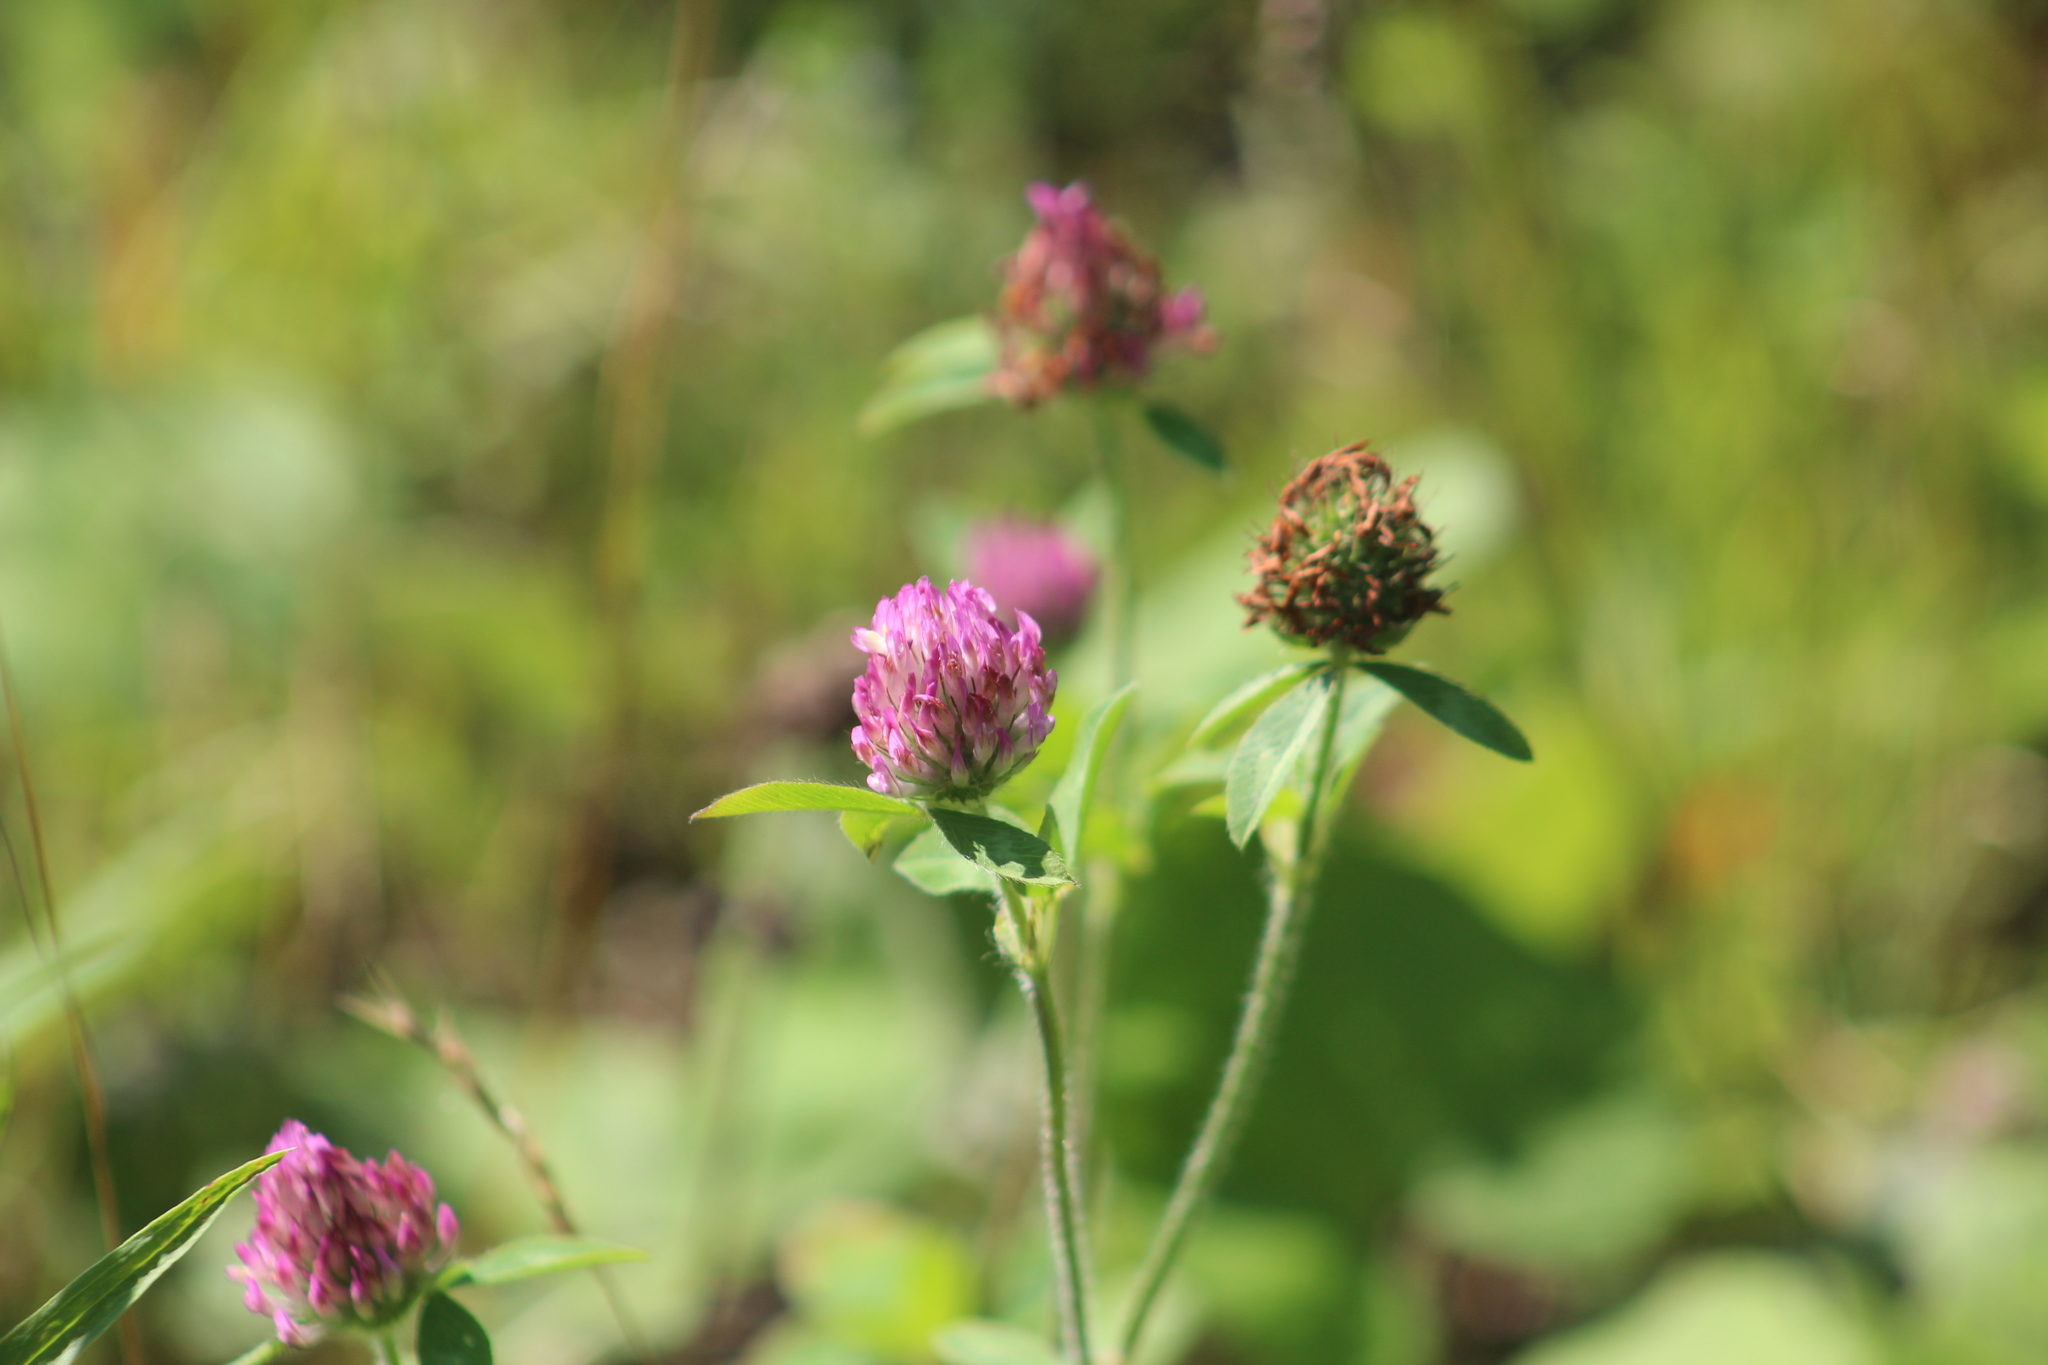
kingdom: Plantae
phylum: Tracheophyta
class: Magnoliopsida
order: Fabales
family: Fabaceae
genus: Trifolium
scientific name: Trifolium pratense
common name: Red clover
